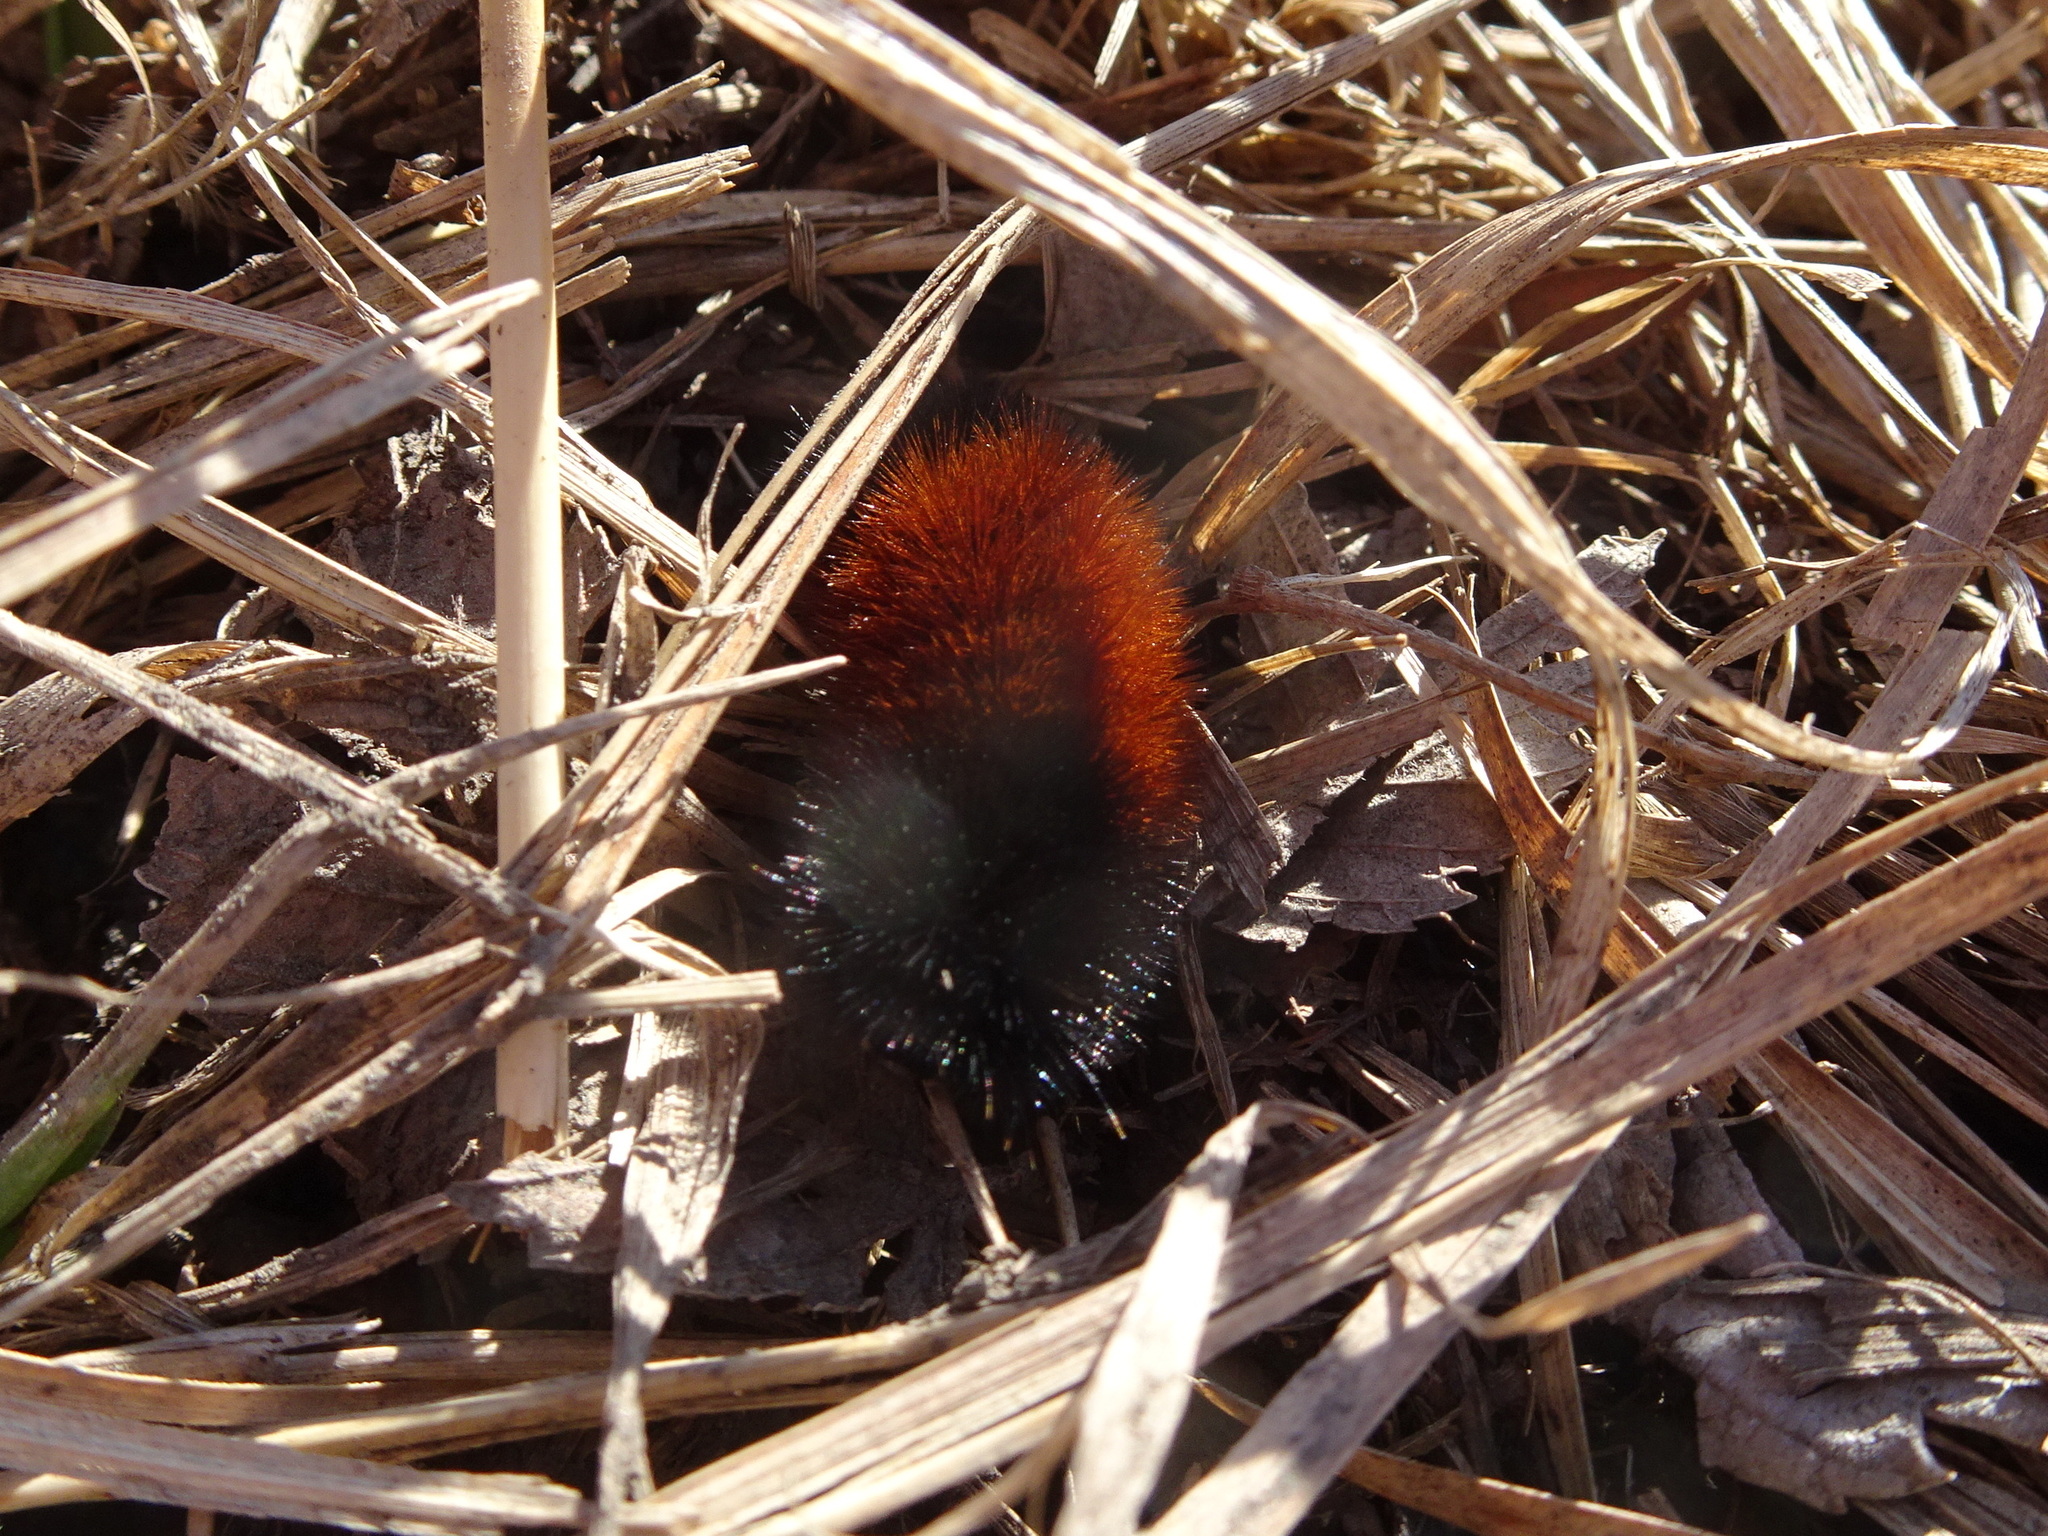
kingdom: Animalia
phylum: Arthropoda
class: Insecta
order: Lepidoptera
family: Erebidae
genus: Pyrrharctia
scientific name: Pyrrharctia isabella
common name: Isabella tiger moth
